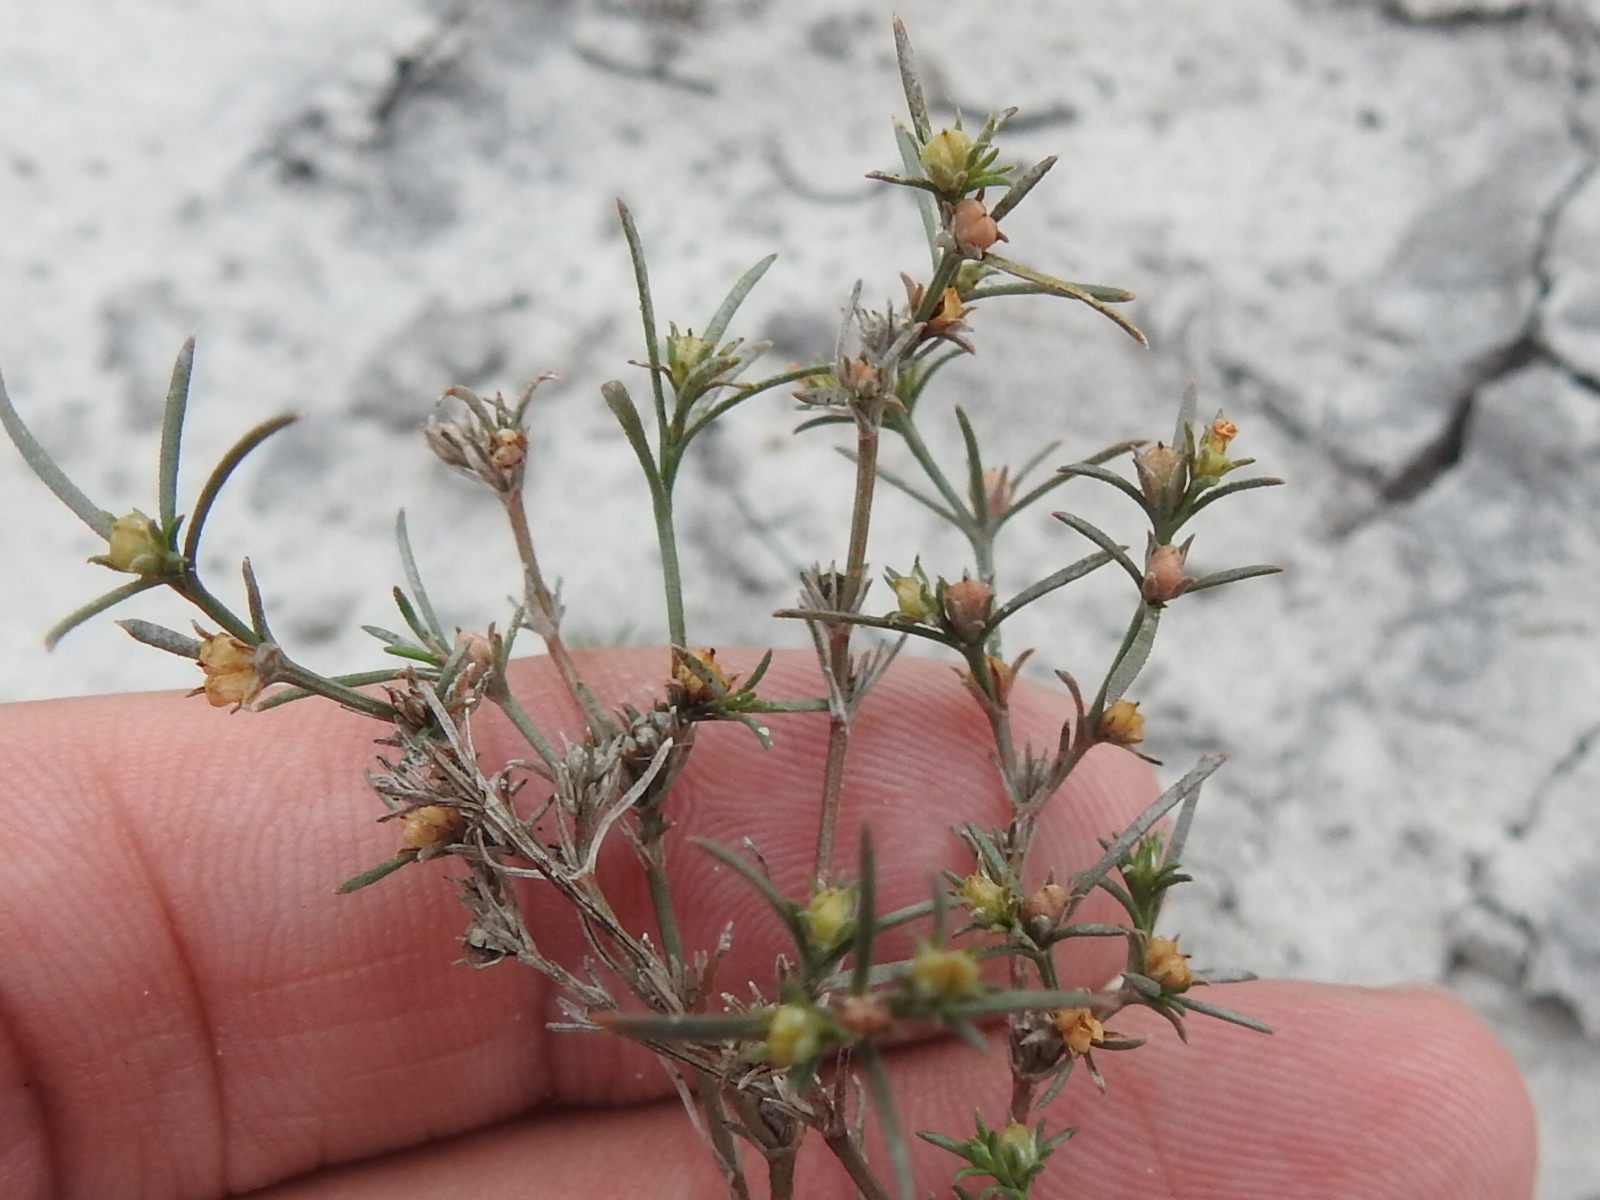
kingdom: Plantae
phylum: Tracheophyta
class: Magnoliopsida
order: Lamiales
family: Tetrachondraceae
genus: Polypremum
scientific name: Polypremum procumbens
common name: Juniper-leaf
